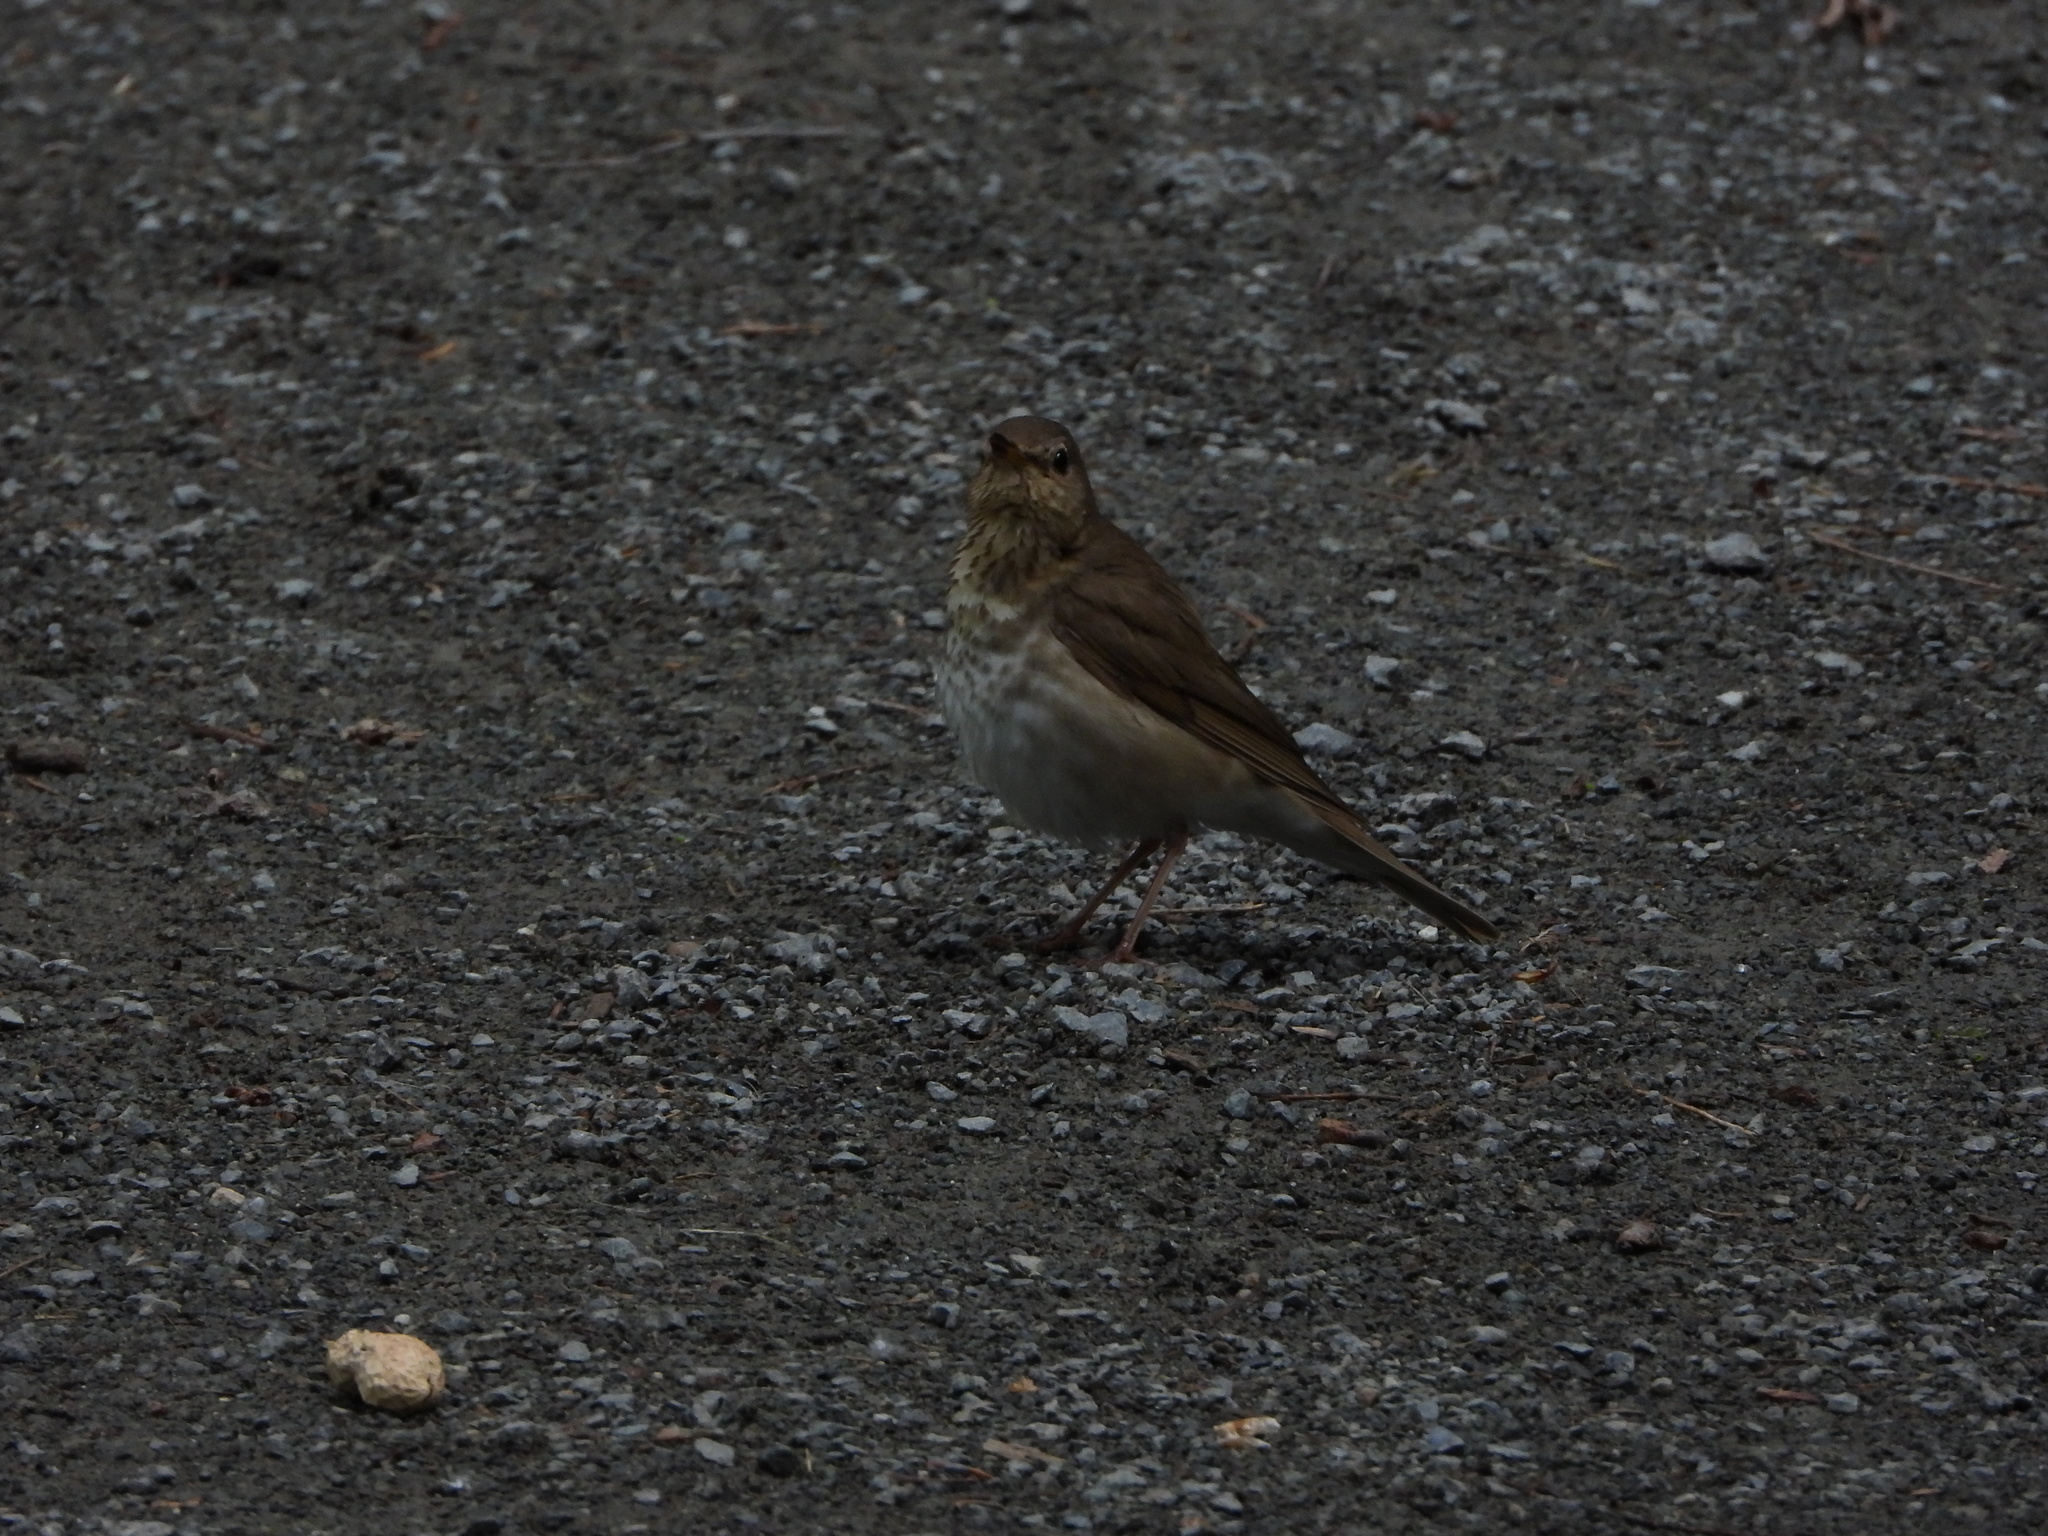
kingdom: Animalia
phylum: Chordata
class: Aves
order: Passeriformes
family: Turdidae
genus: Catharus
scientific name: Catharus ustulatus
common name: Swainson's thrush
